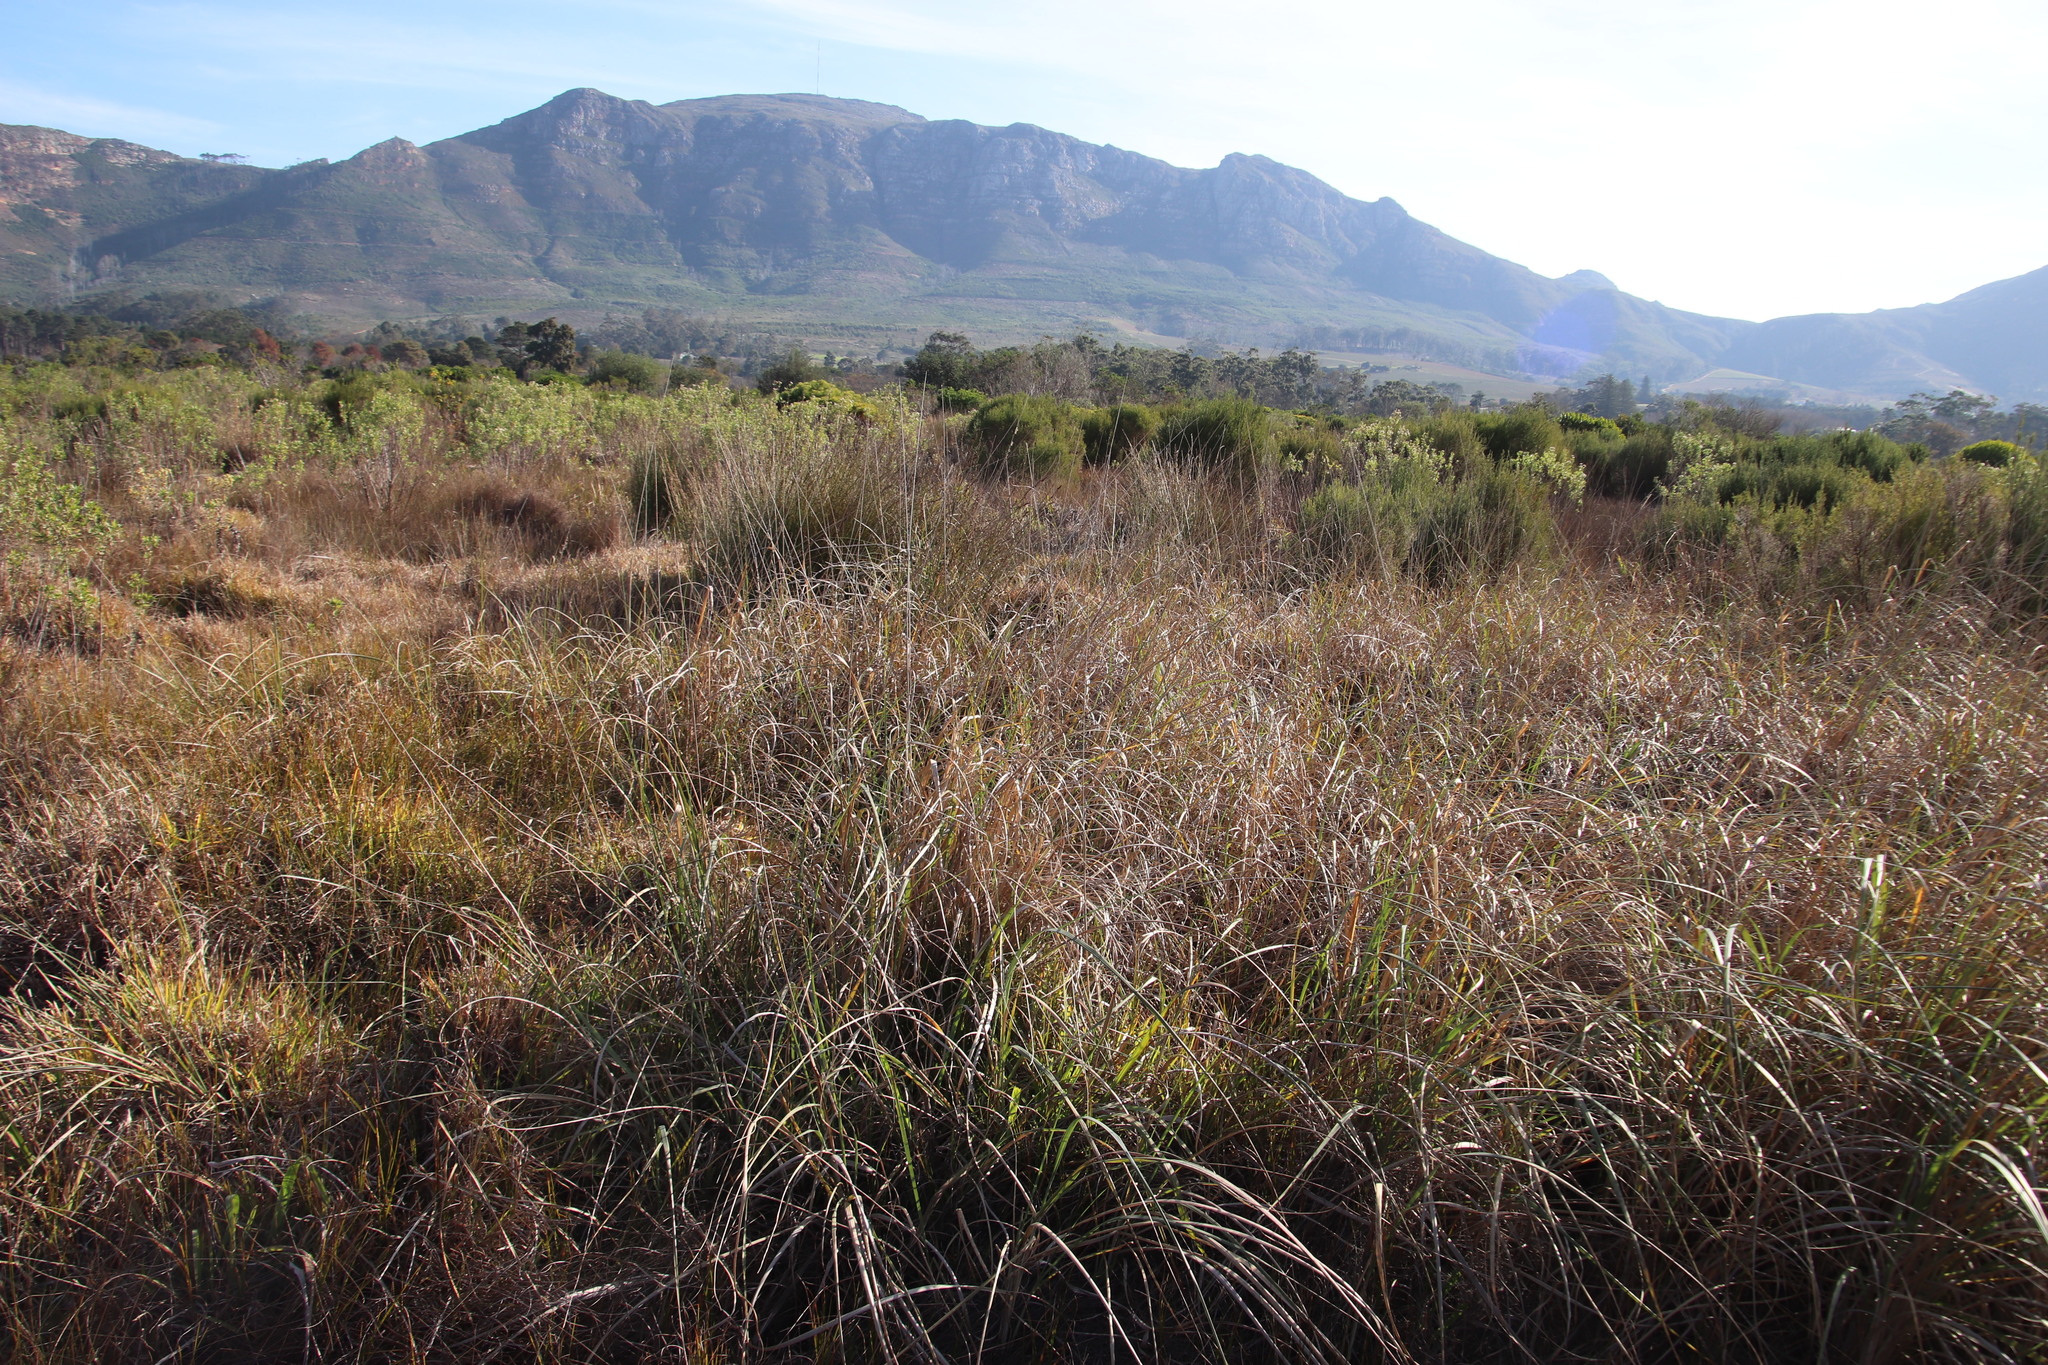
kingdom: Plantae
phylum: Tracheophyta
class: Liliopsida
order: Poales
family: Poaceae
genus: Cenchrus
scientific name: Cenchrus caudatus
